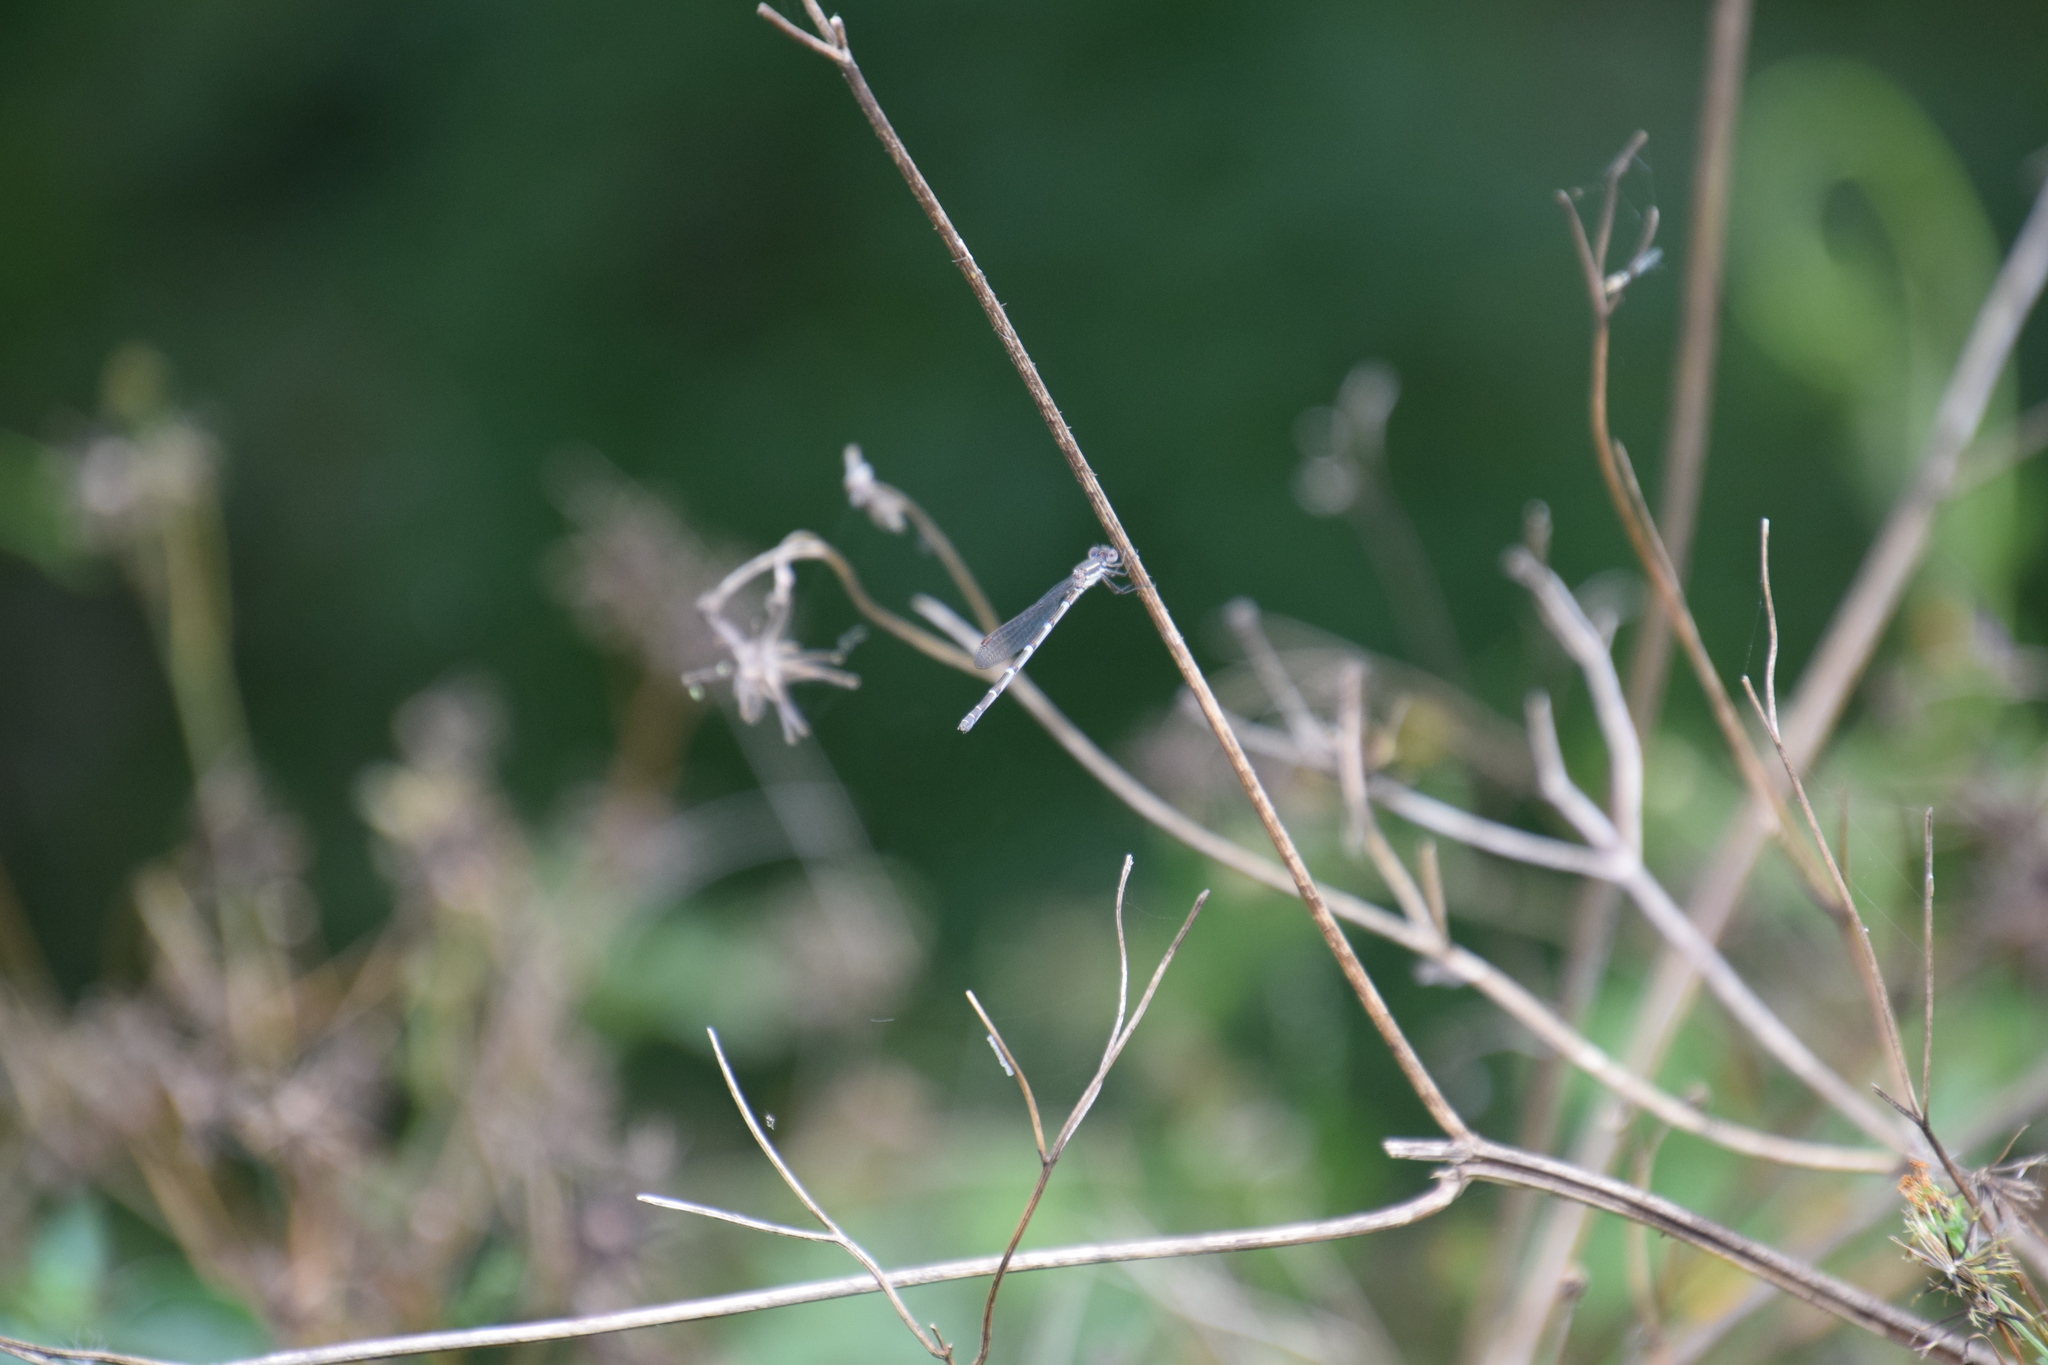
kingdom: Animalia
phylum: Arthropoda
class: Insecta
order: Odonata
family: Lestidae
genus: Austrolestes
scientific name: Austrolestes leda
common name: Wandering ringtail
